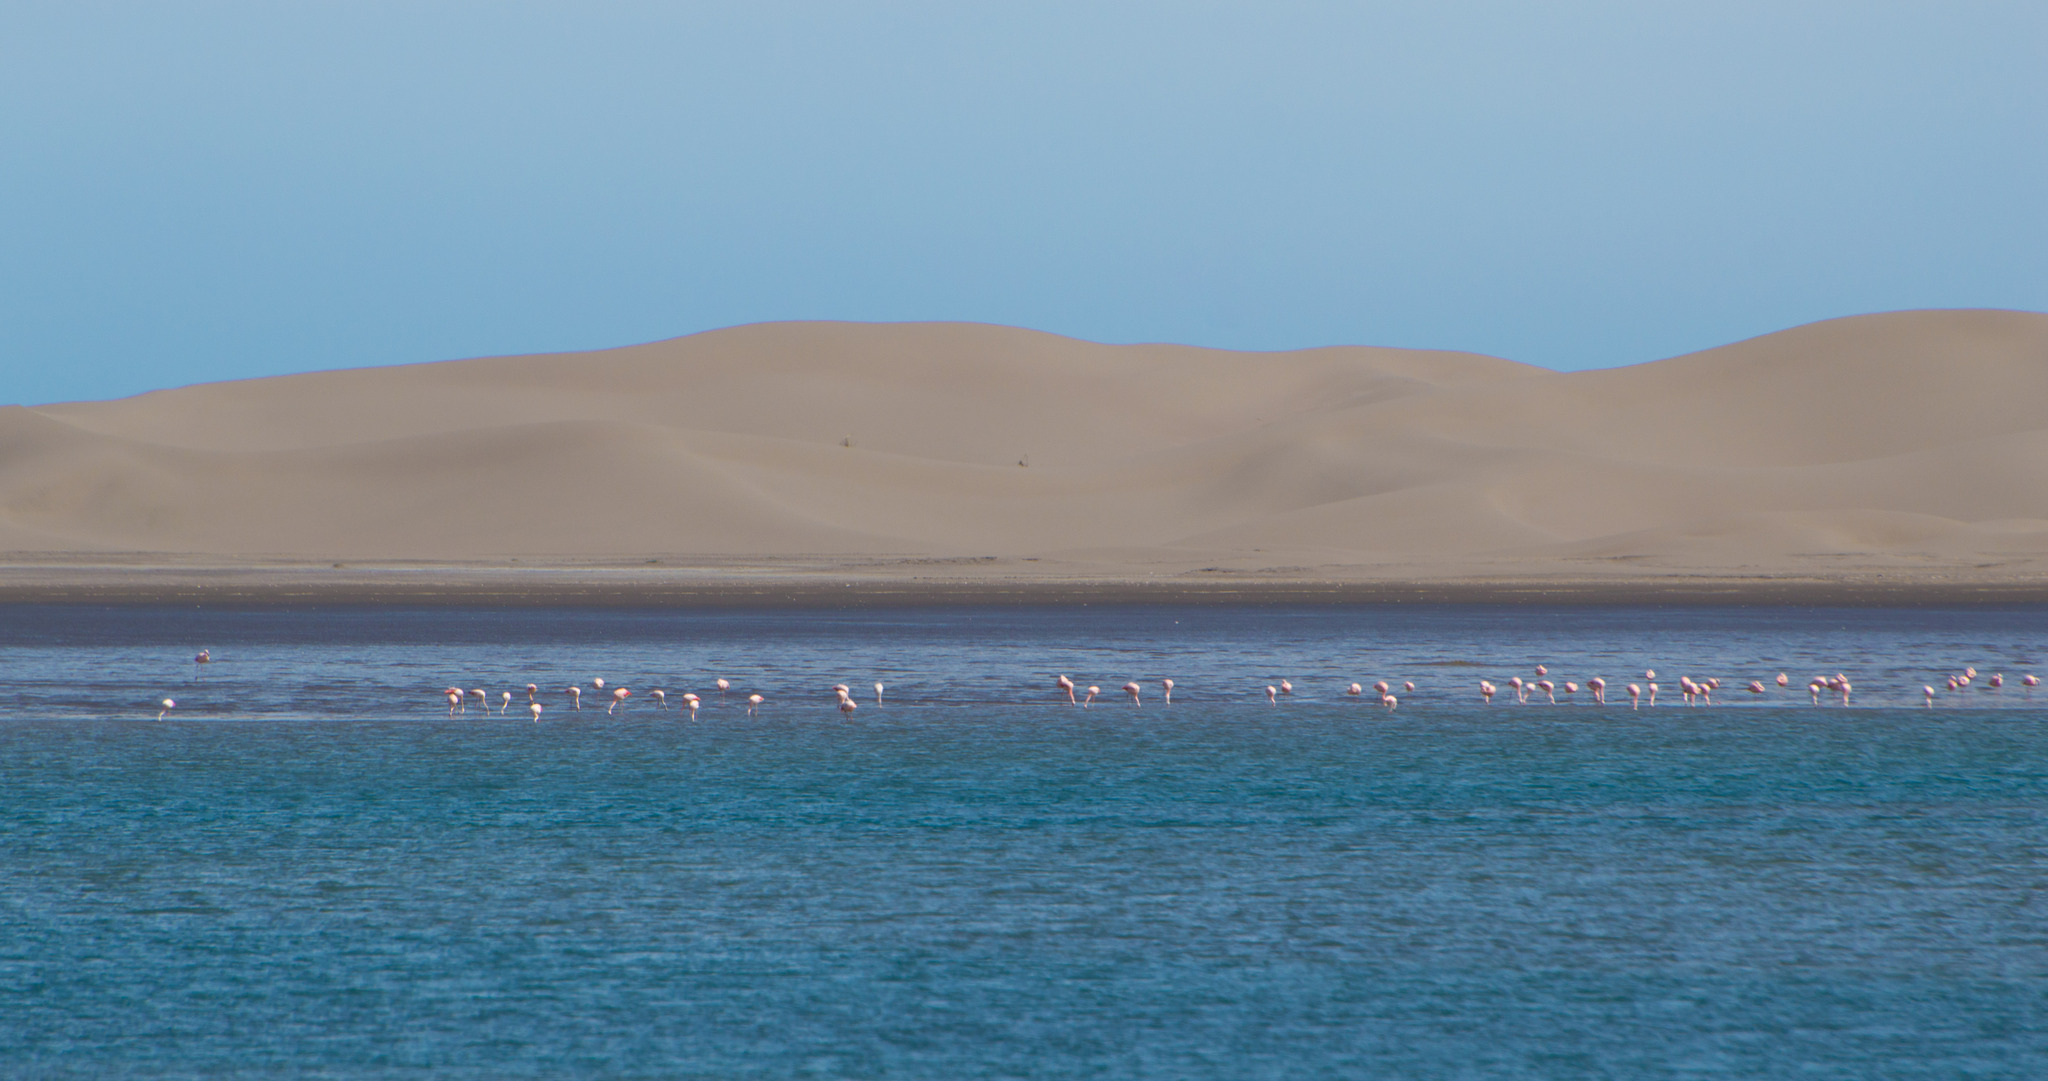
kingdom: Animalia
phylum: Chordata
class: Aves
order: Phoenicopteriformes
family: Phoenicopteridae
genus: Phoenicopterus
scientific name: Phoenicopterus chilensis
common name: Chilean flamingo
